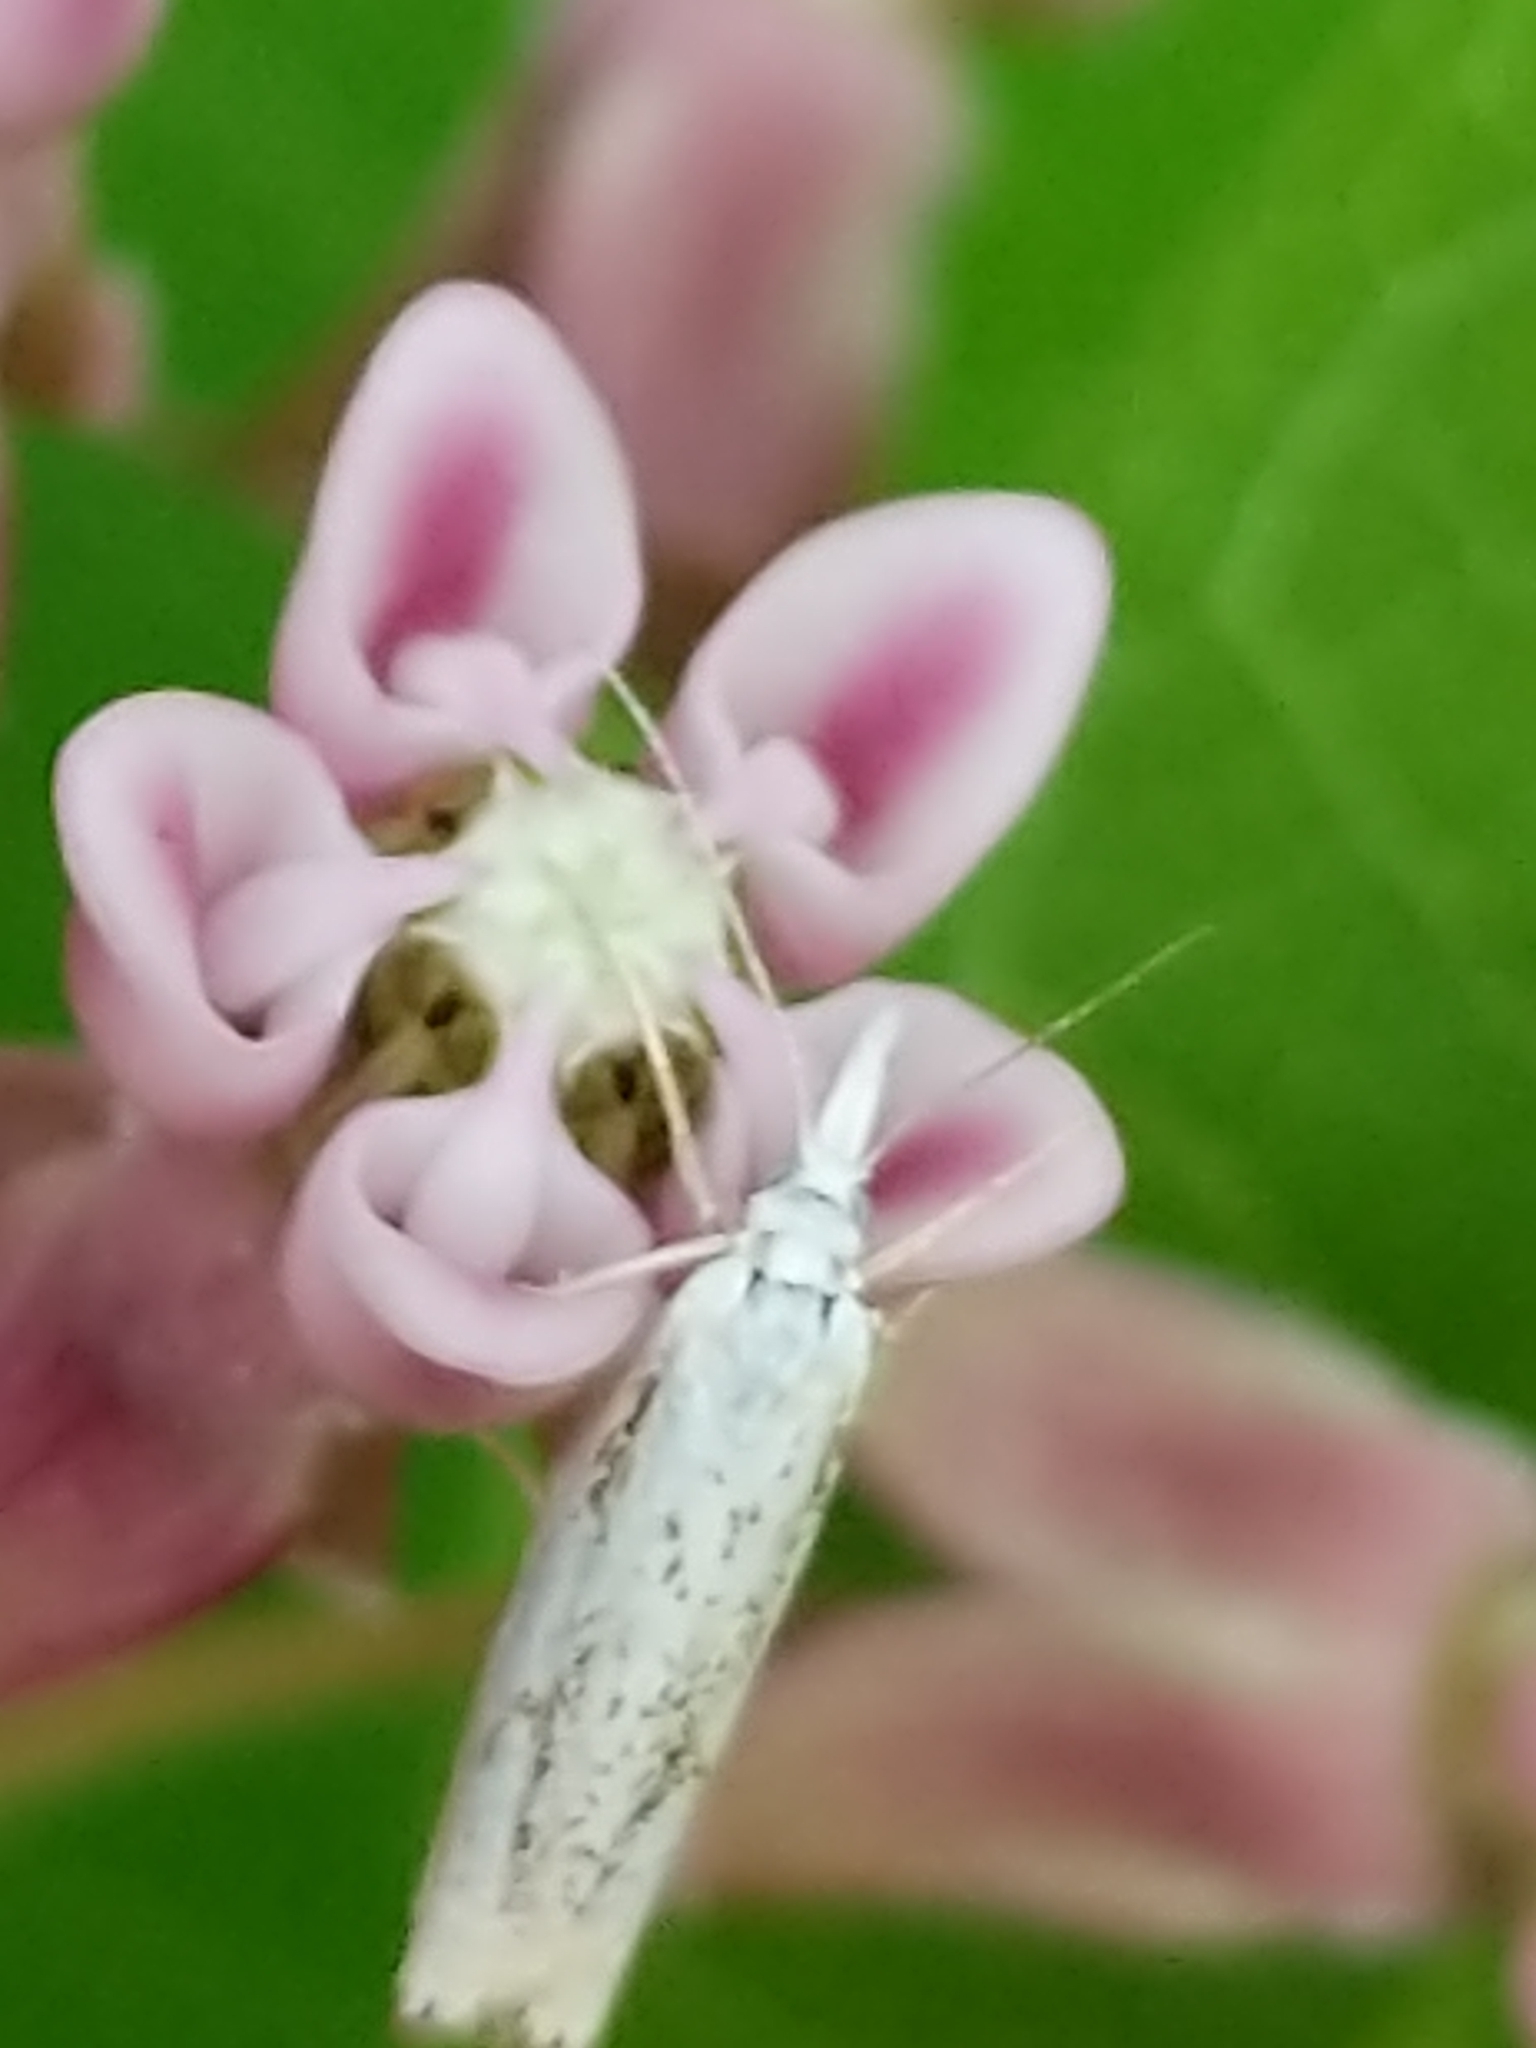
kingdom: Animalia
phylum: Arthropoda
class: Insecta
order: Lepidoptera
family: Crambidae
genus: Crambus
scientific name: Crambus albellus
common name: Small white grass-veneer
